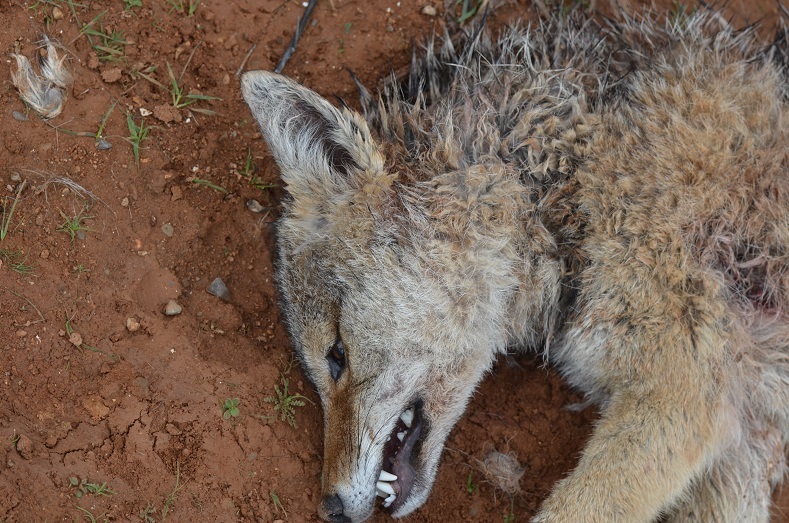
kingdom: Animalia
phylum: Chordata
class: Mammalia
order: Carnivora
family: Canidae
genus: Canis
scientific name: Canis lupaster
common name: African golden wolf
